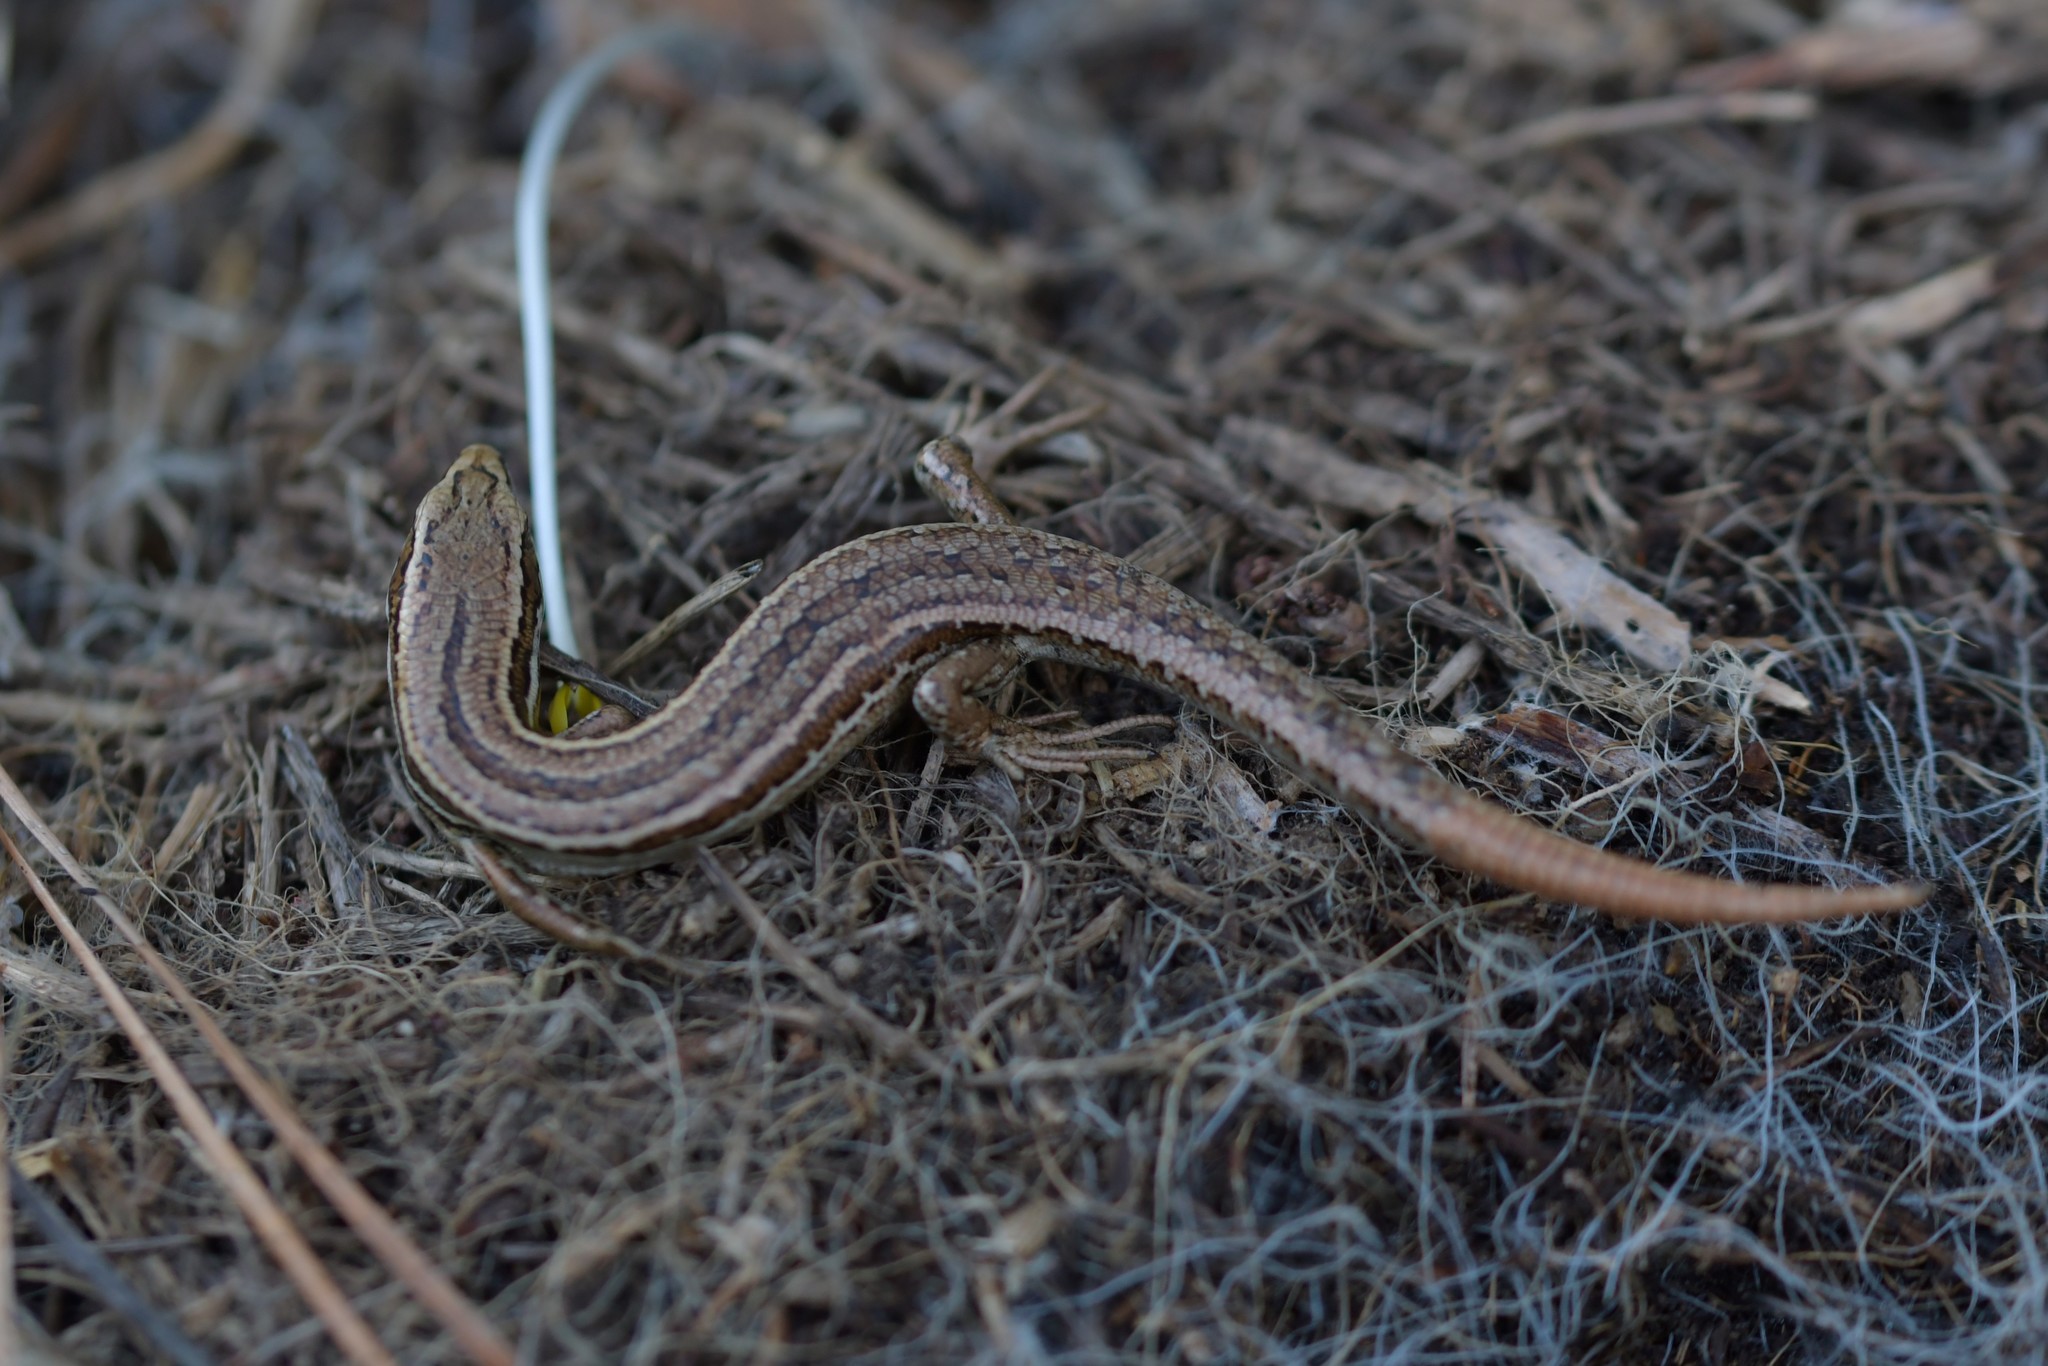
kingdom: Animalia
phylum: Chordata
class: Squamata
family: Scincidae
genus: Oligosoma
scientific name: Oligosoma polychroma
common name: Common new zealand skink
